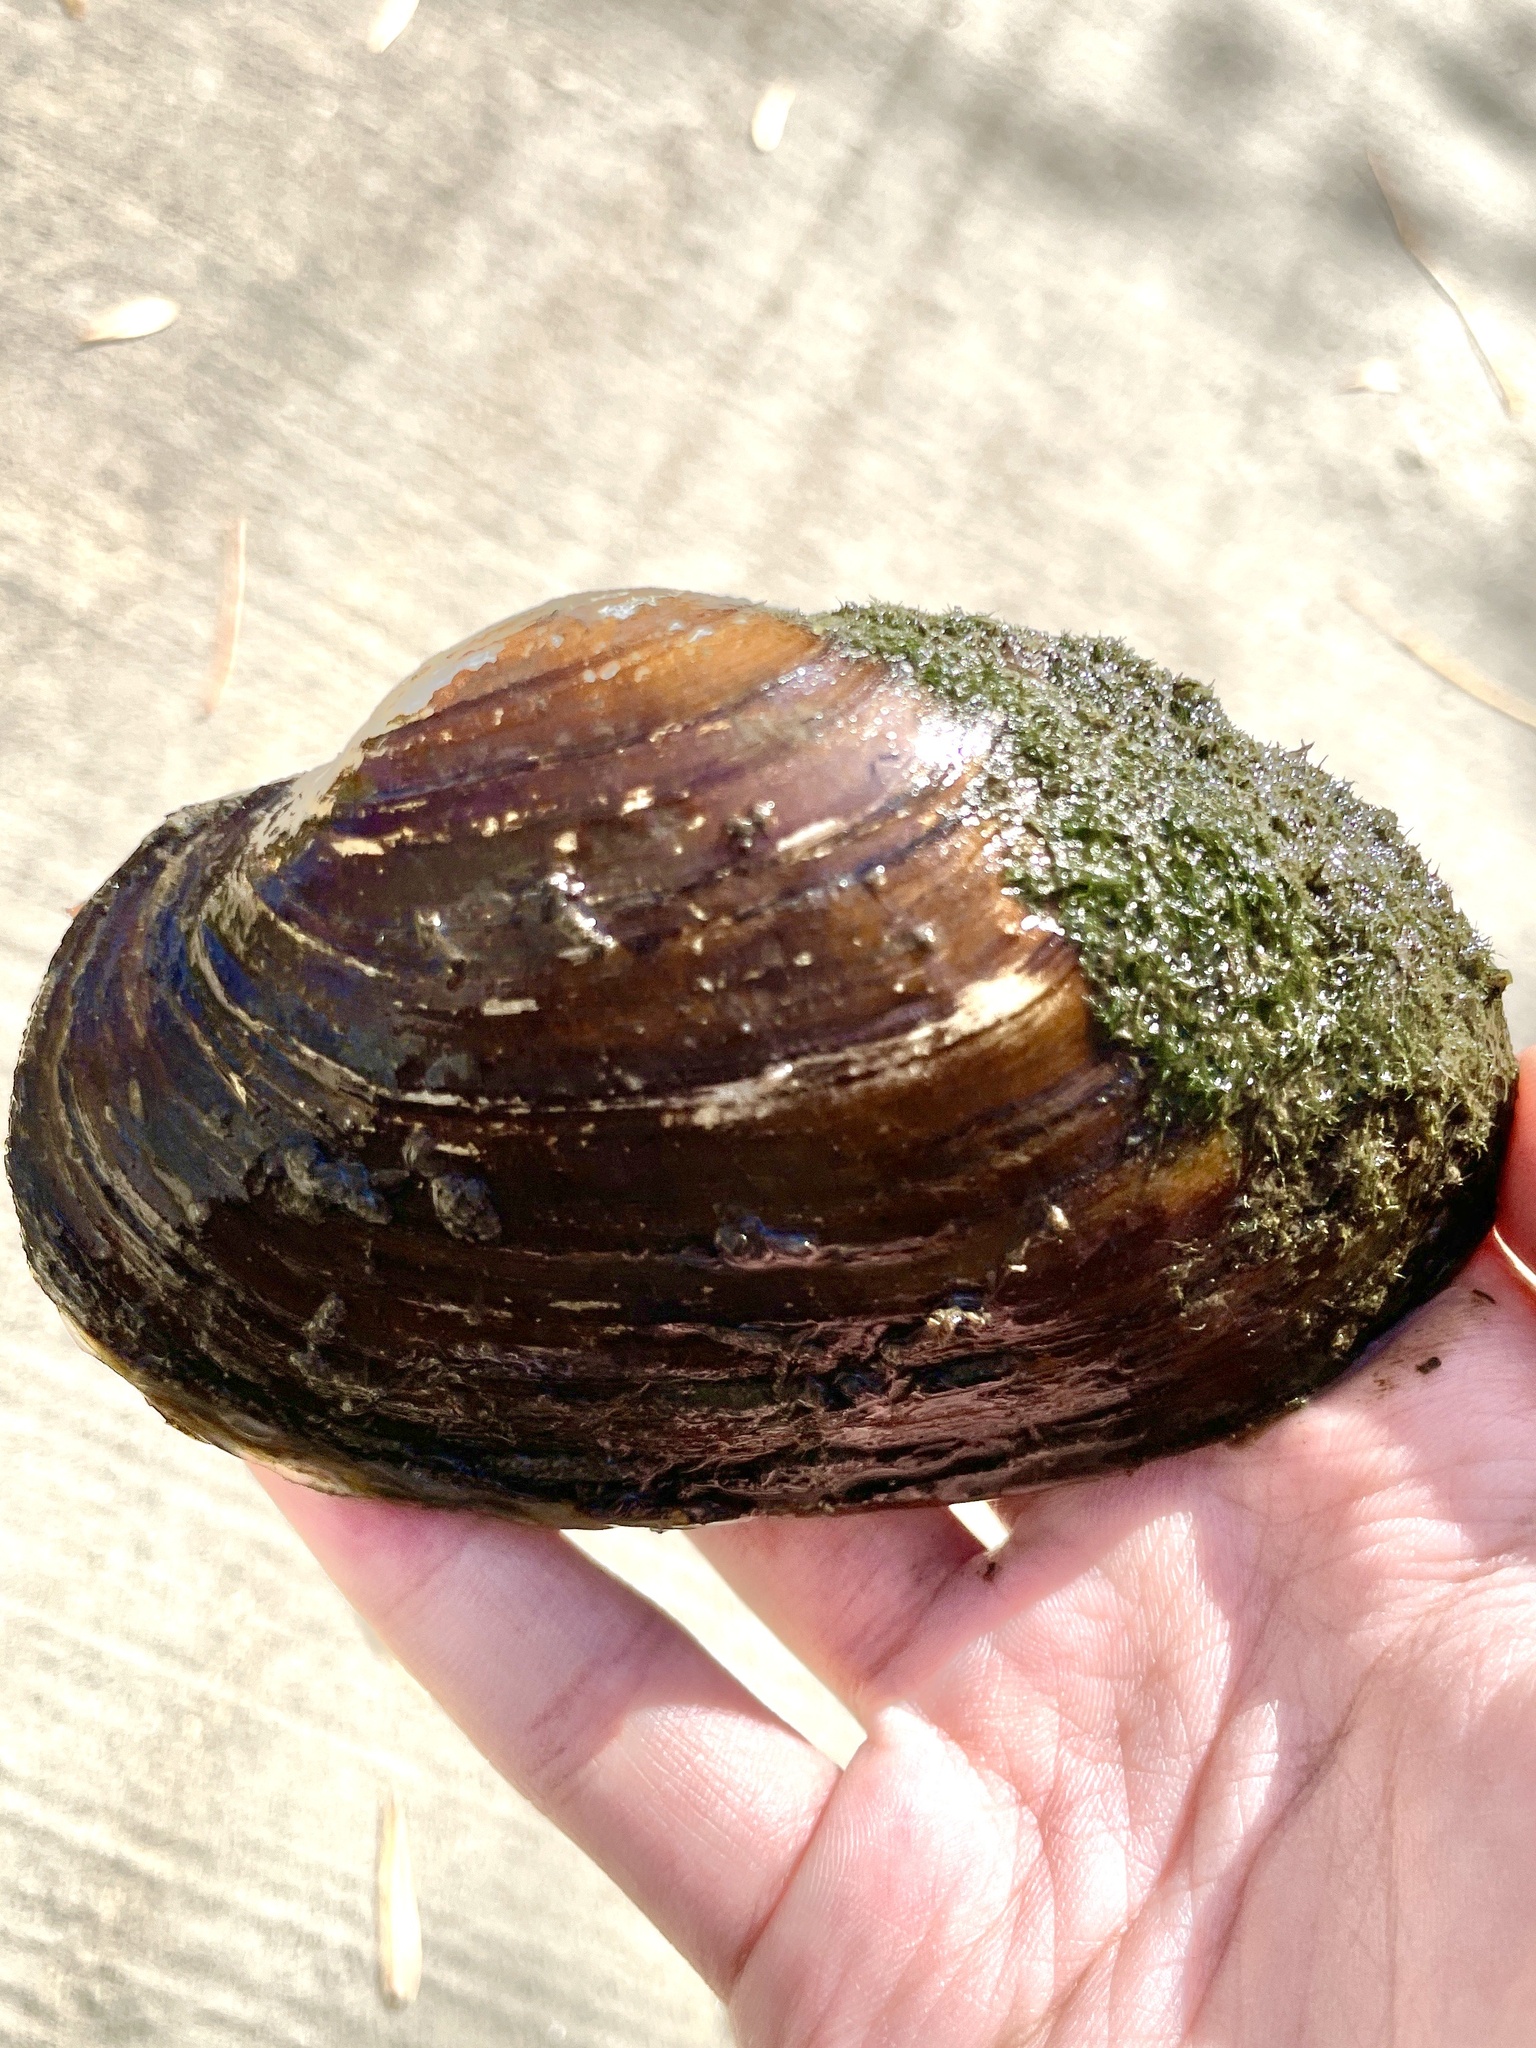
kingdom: Animalia
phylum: Mollusca
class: Bivalvia
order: Unionida
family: Unionidae
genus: Pyganodon
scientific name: Pyganodon grandis
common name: Giant floater
